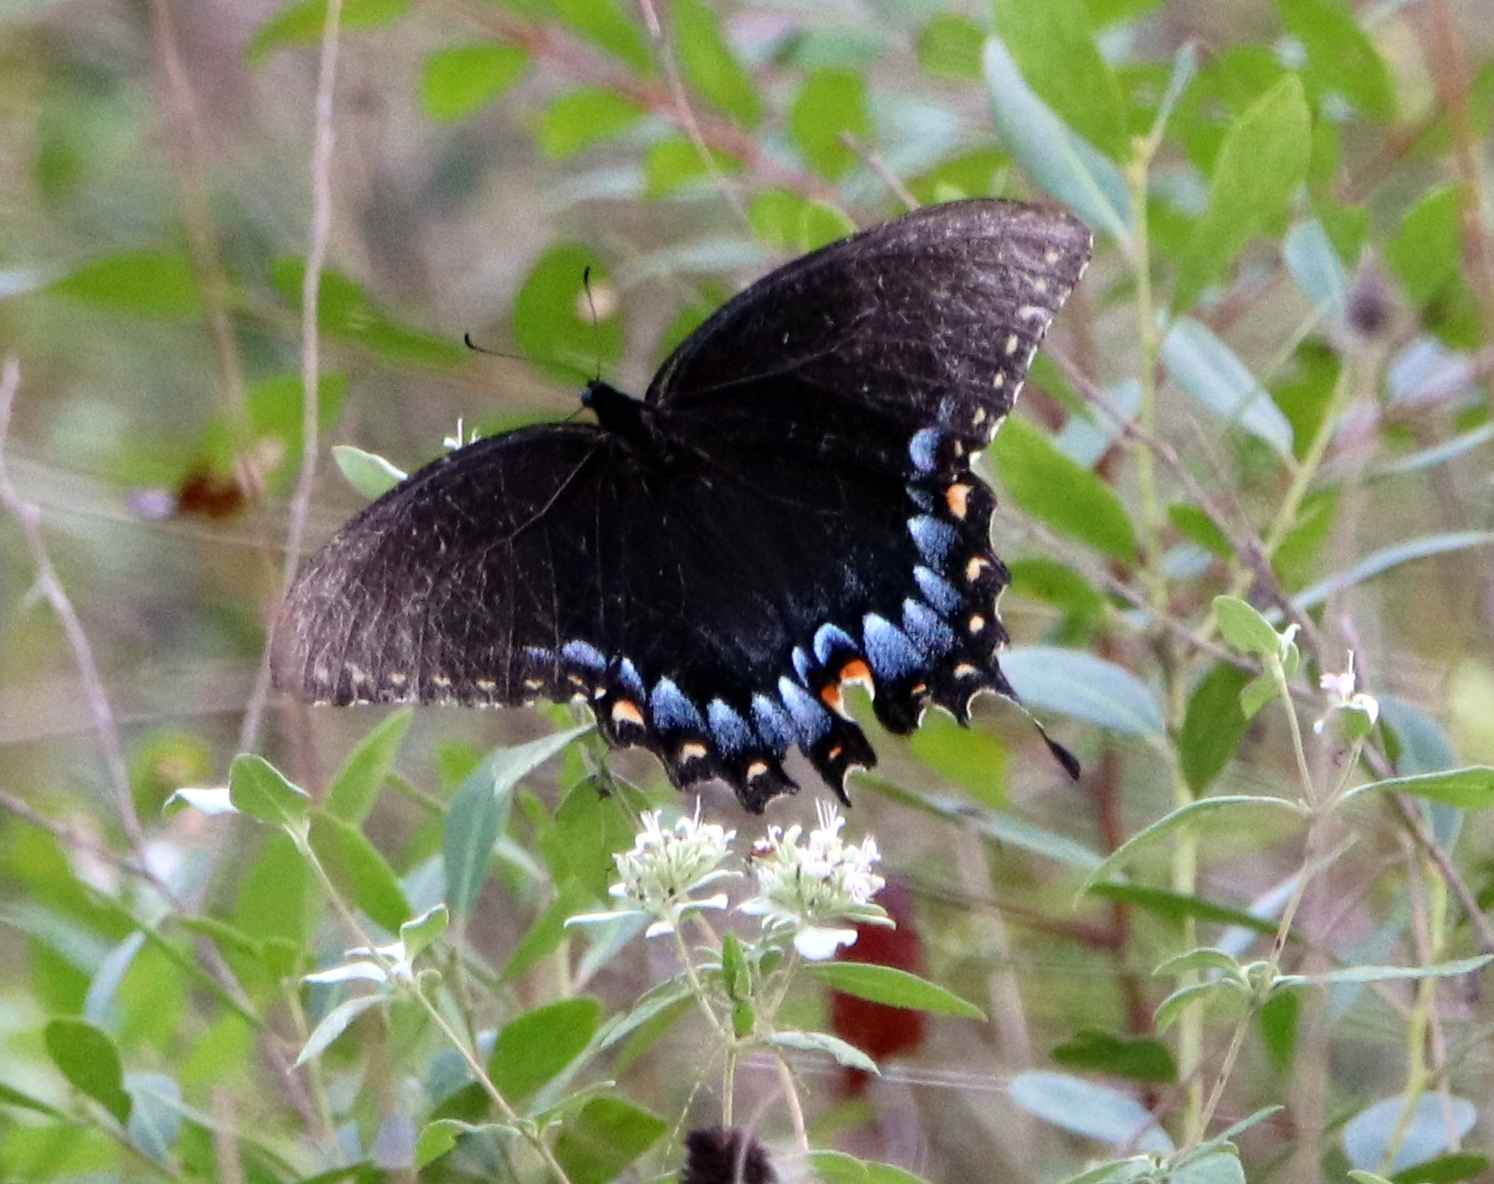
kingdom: Animalia
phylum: Arthropoda
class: Insecta
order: Lepidoptera
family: Papilionidae
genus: Papilio
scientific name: Papilio glaucus
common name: Tiger swallowtail
